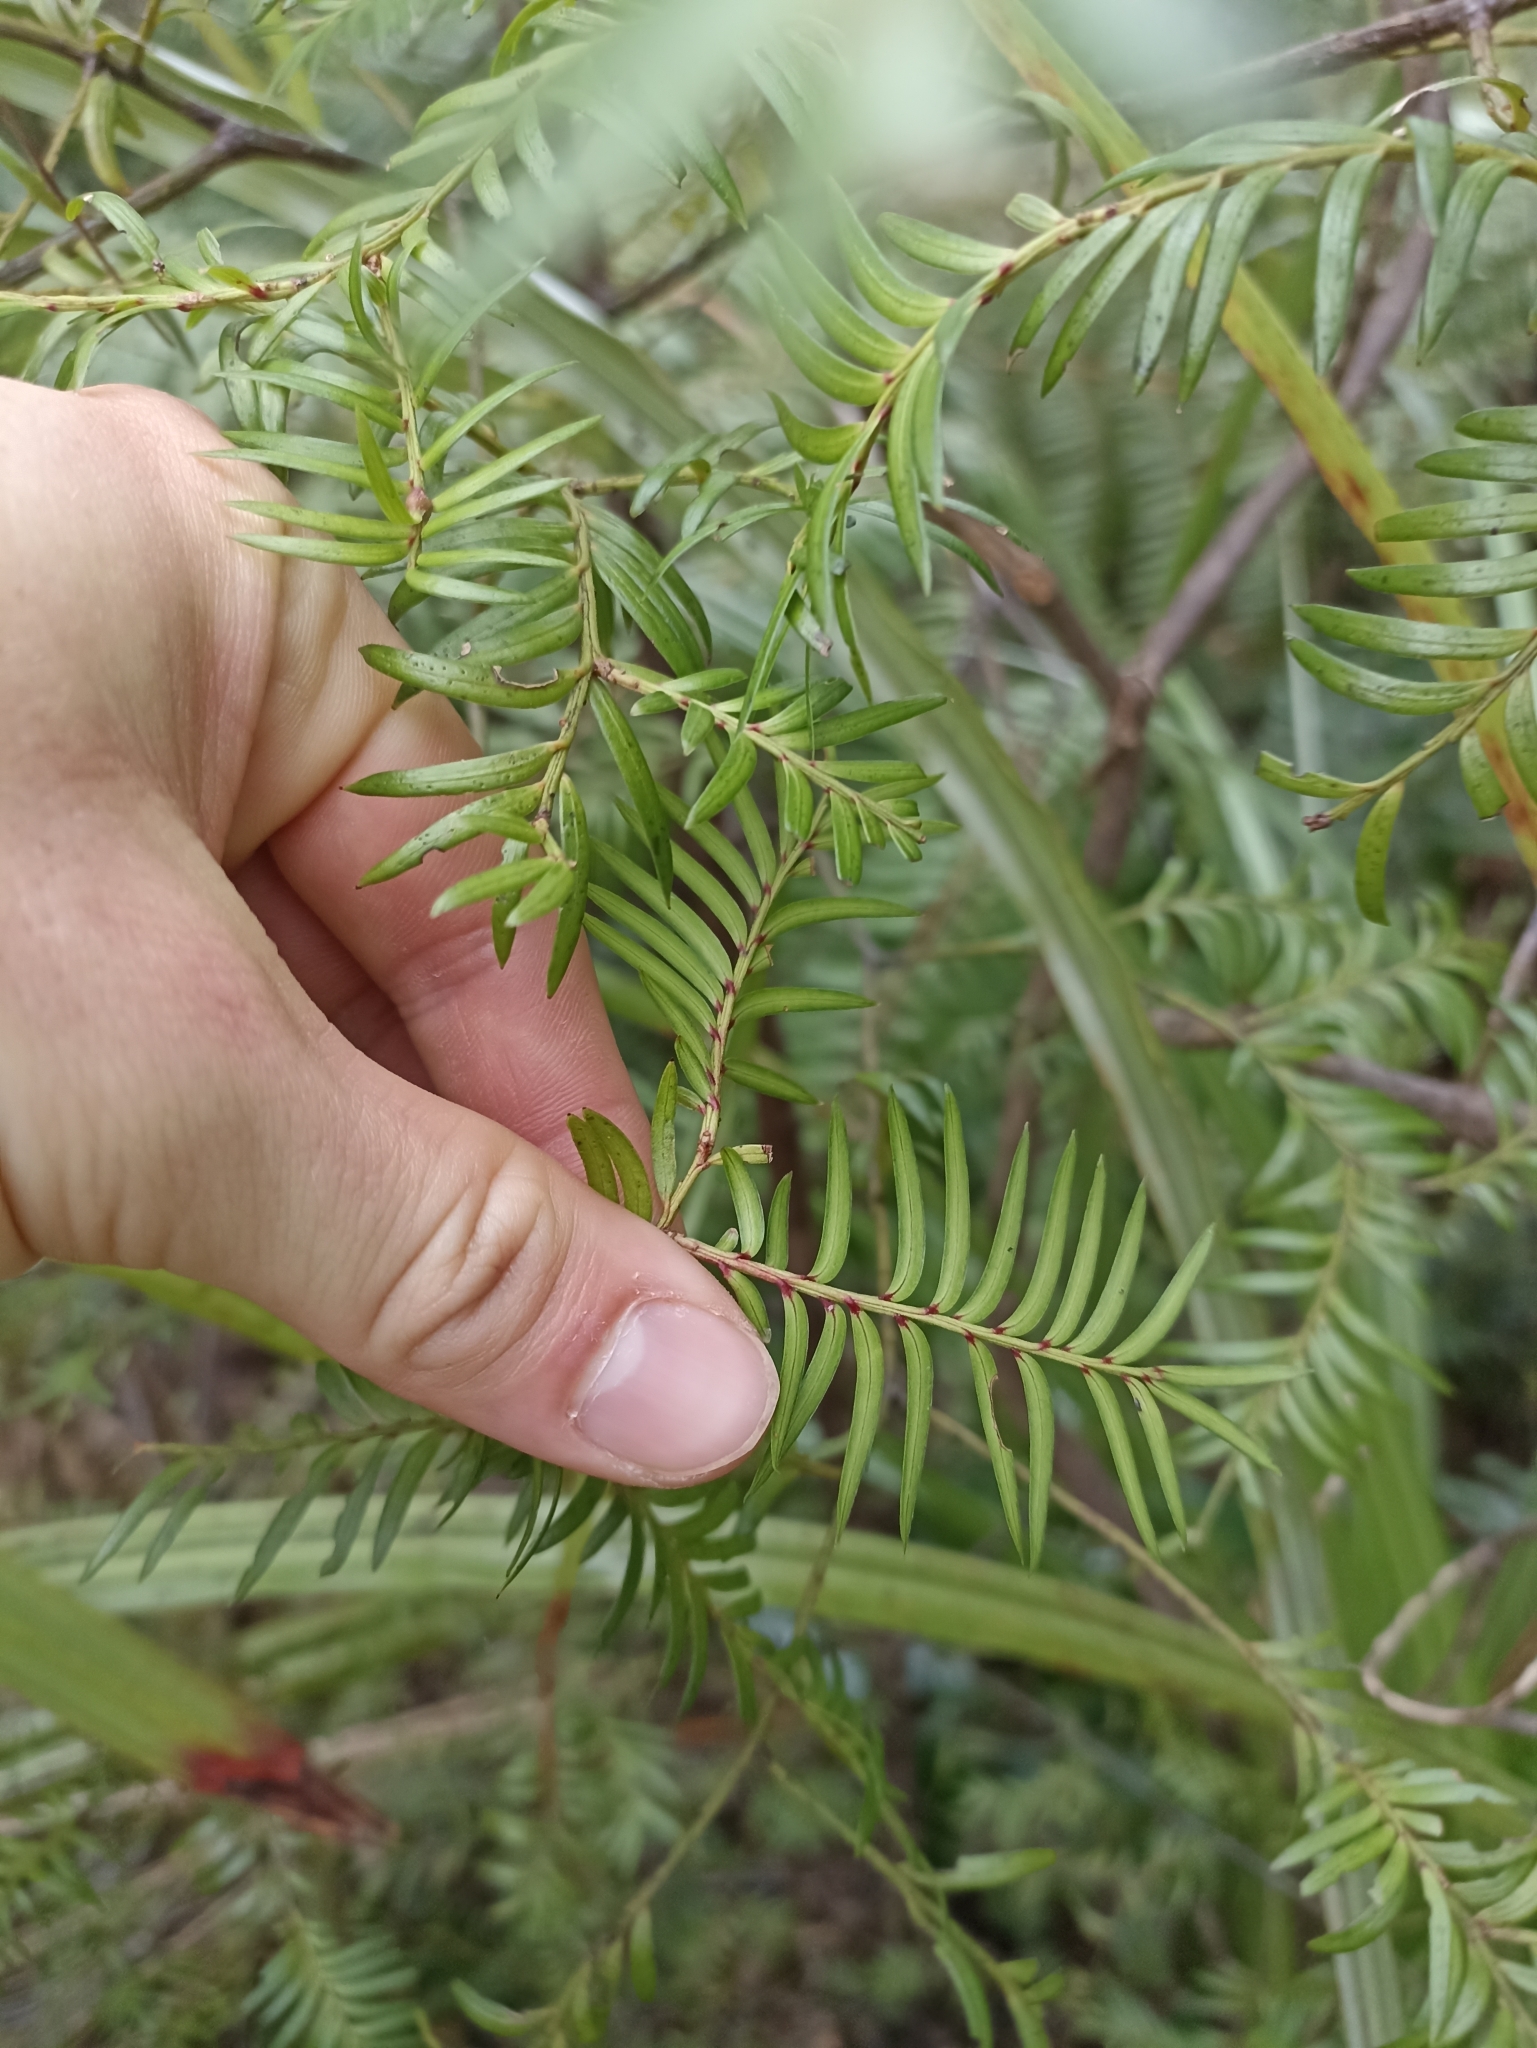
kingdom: Plantae
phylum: Tracheophyta
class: Pinopsida
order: Pinales
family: Podocarpaceae
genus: Prumnopitys
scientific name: Prumnopitys ferruginea
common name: Brown pine
